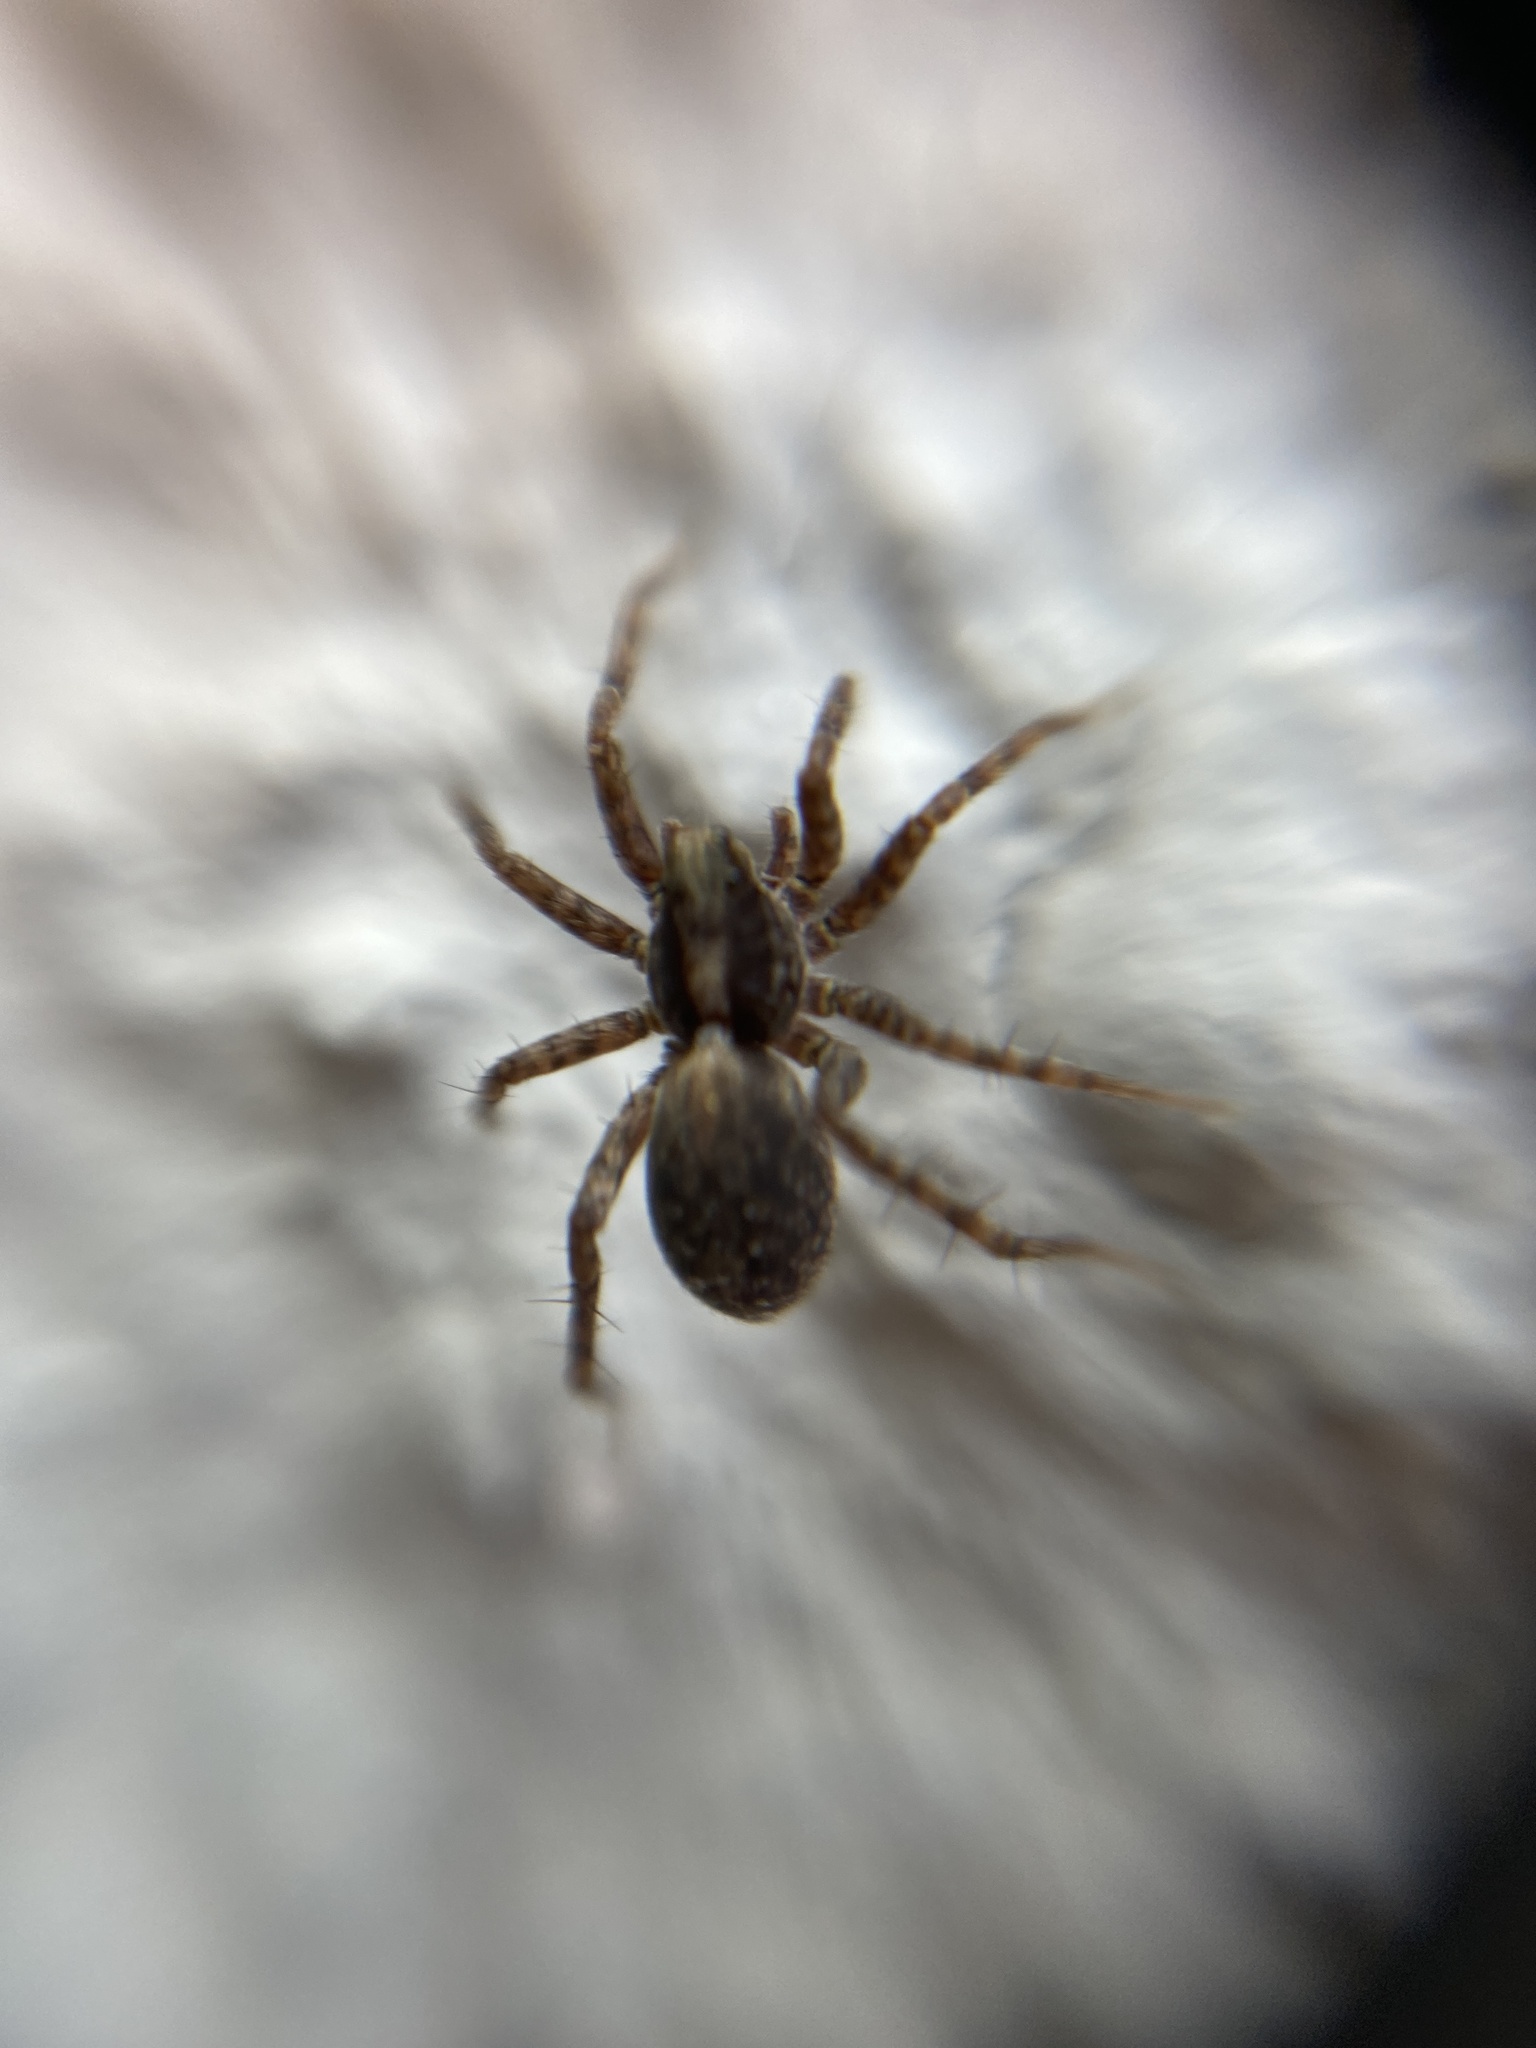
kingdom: Animalia
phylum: Arthropoda
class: Arachnida
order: Araneae
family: Lycosidae
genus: Pardosa
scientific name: Pardosa
